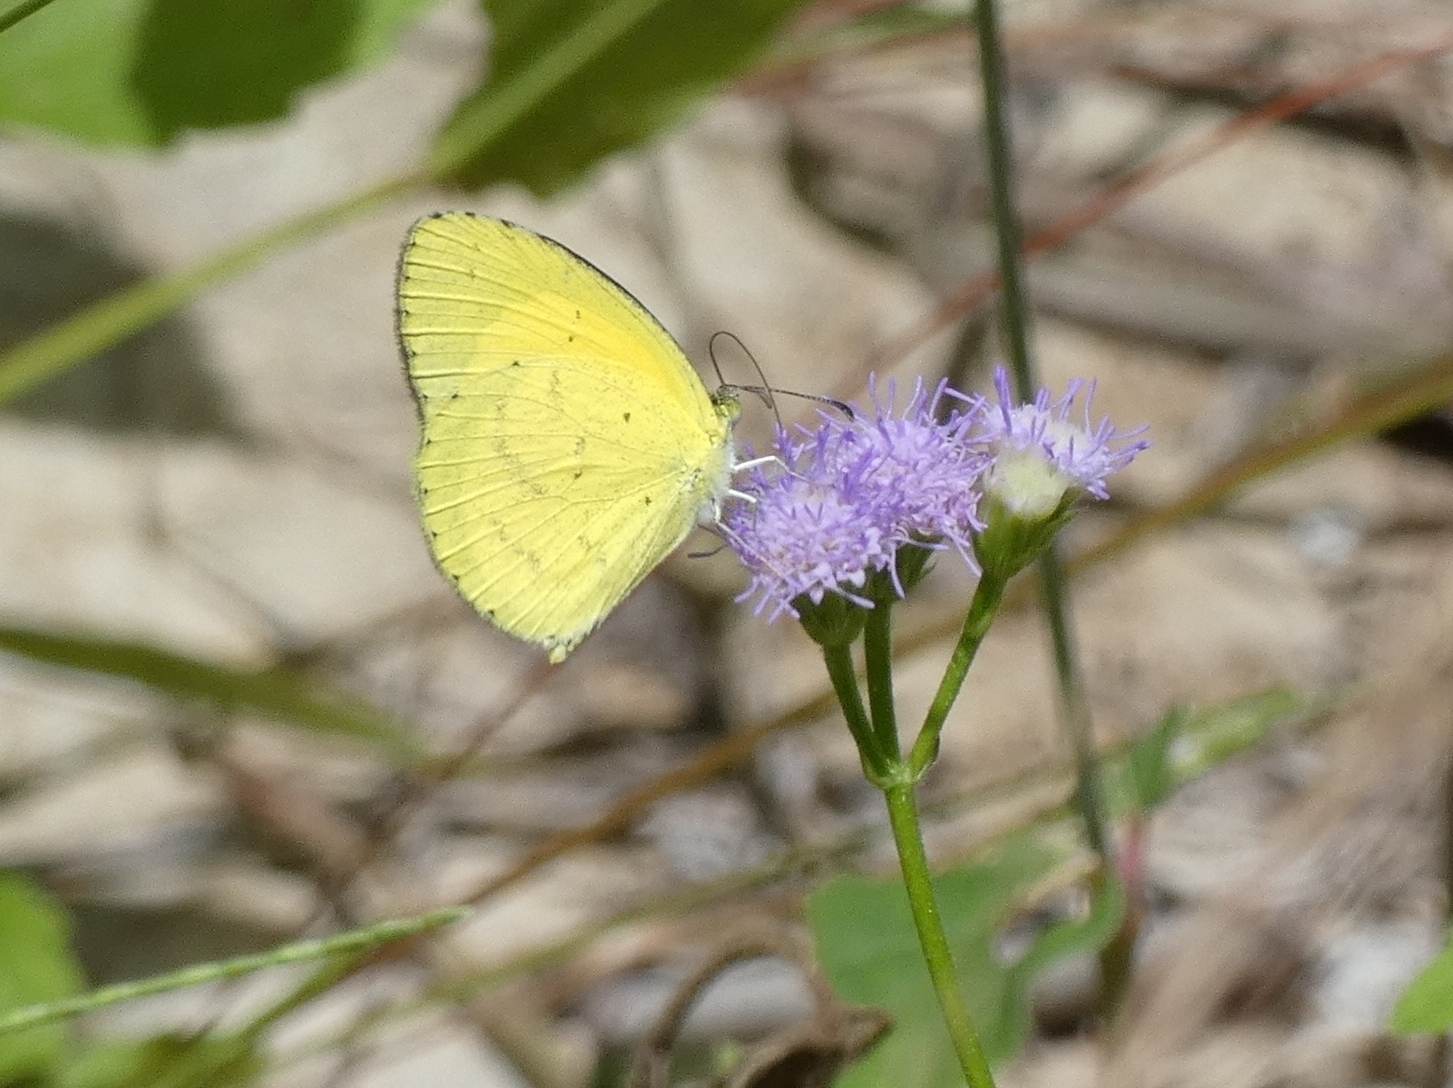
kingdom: Animalia
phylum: Arthropoda
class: Insecta
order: Lepidoptera
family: Pieridae
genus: Eurema
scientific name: Eurema brigitta
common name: Small grass yellow
